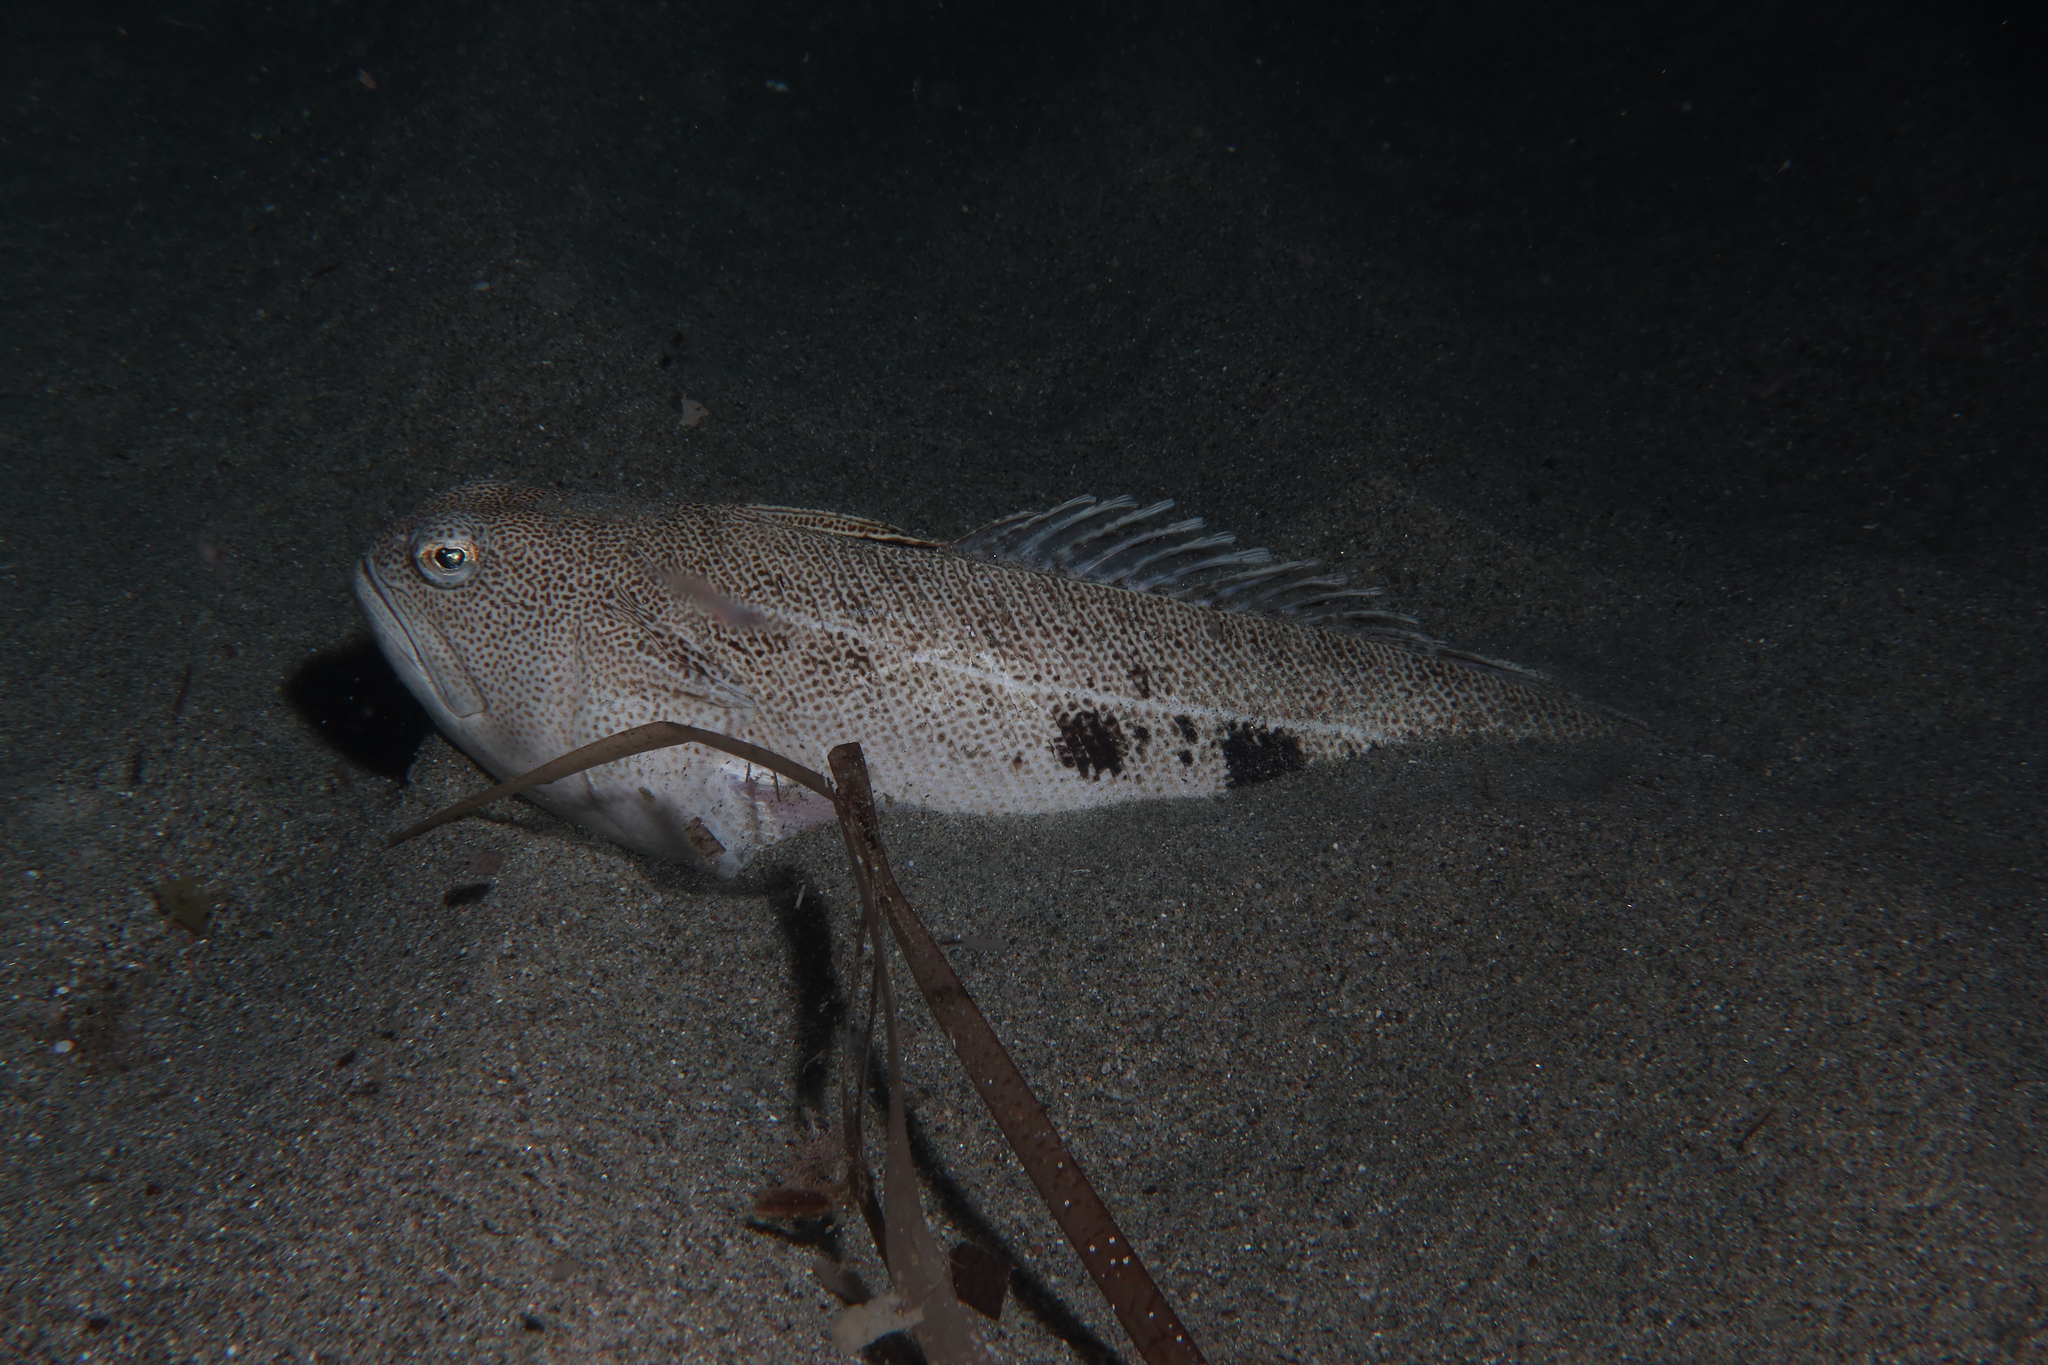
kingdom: Animalia
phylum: Chordata
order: Perciformes
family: Trachinidae
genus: Trachinus
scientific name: Trachinus araneus
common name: Spotted weever
